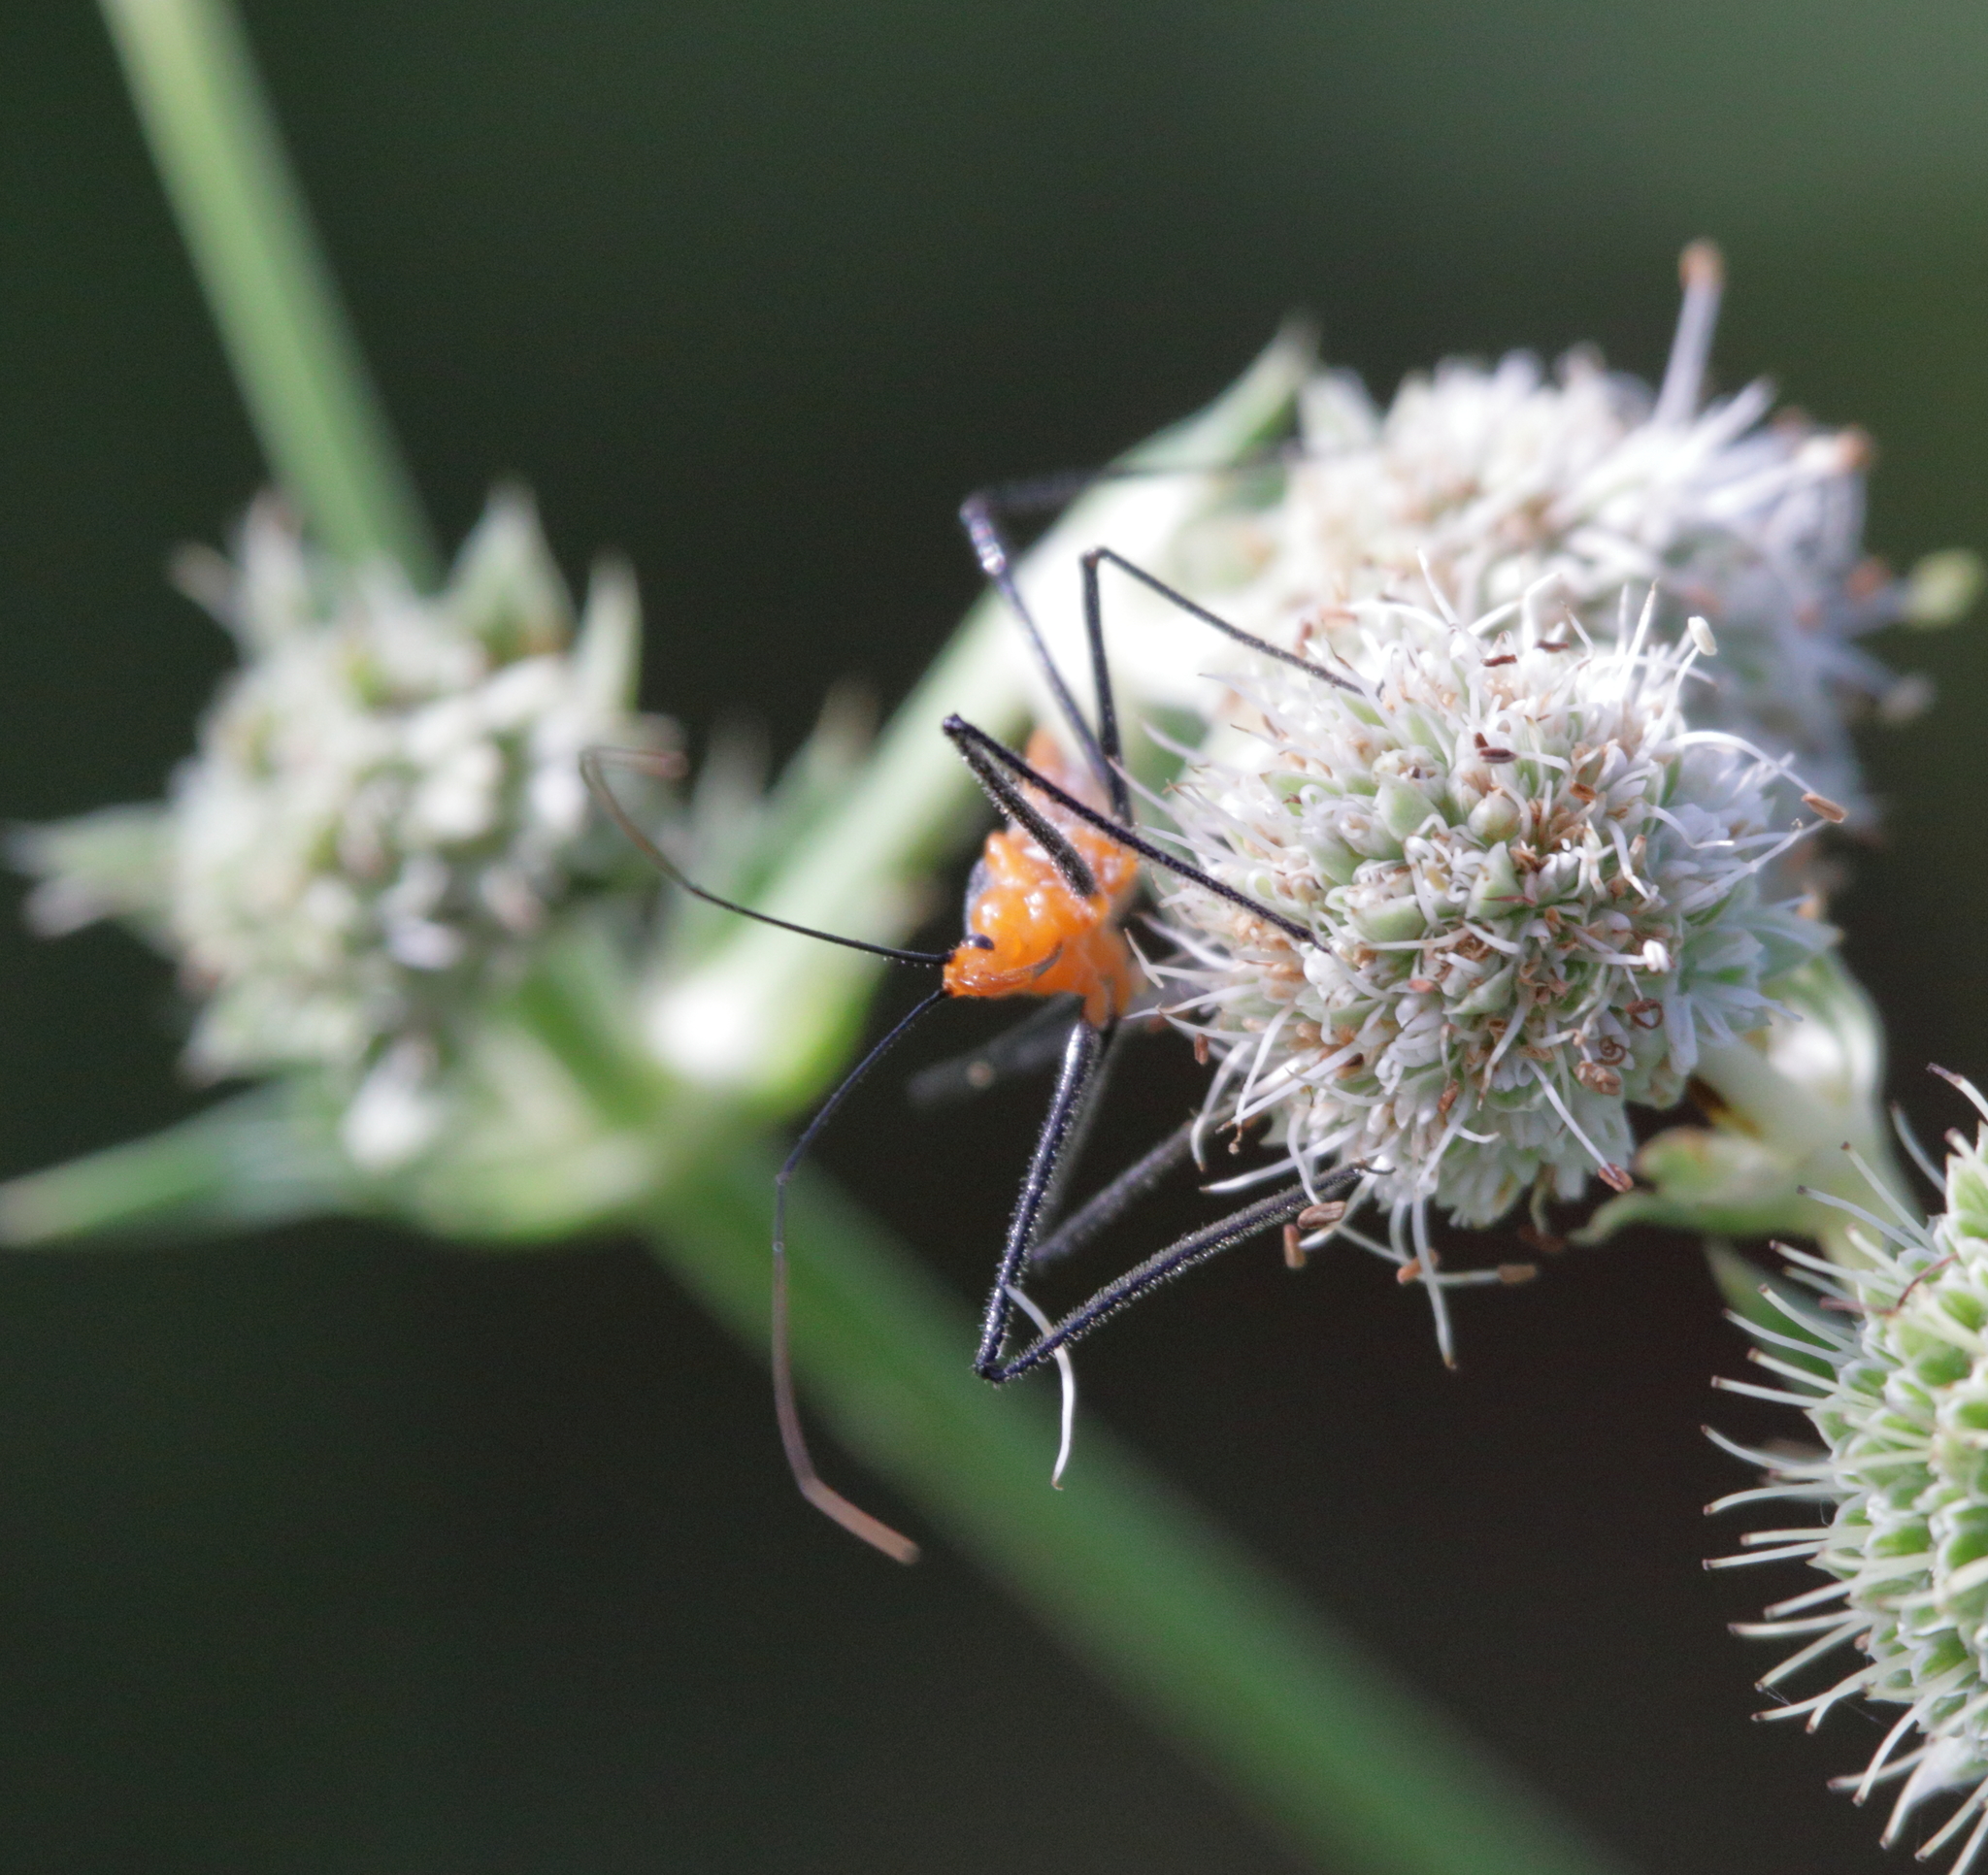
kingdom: Animalia
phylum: Arthropoda
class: Insecta
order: Hemiptera
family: Reduviidae
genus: Zelus
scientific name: Zelus longipes
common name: Milkweed assassin bug
